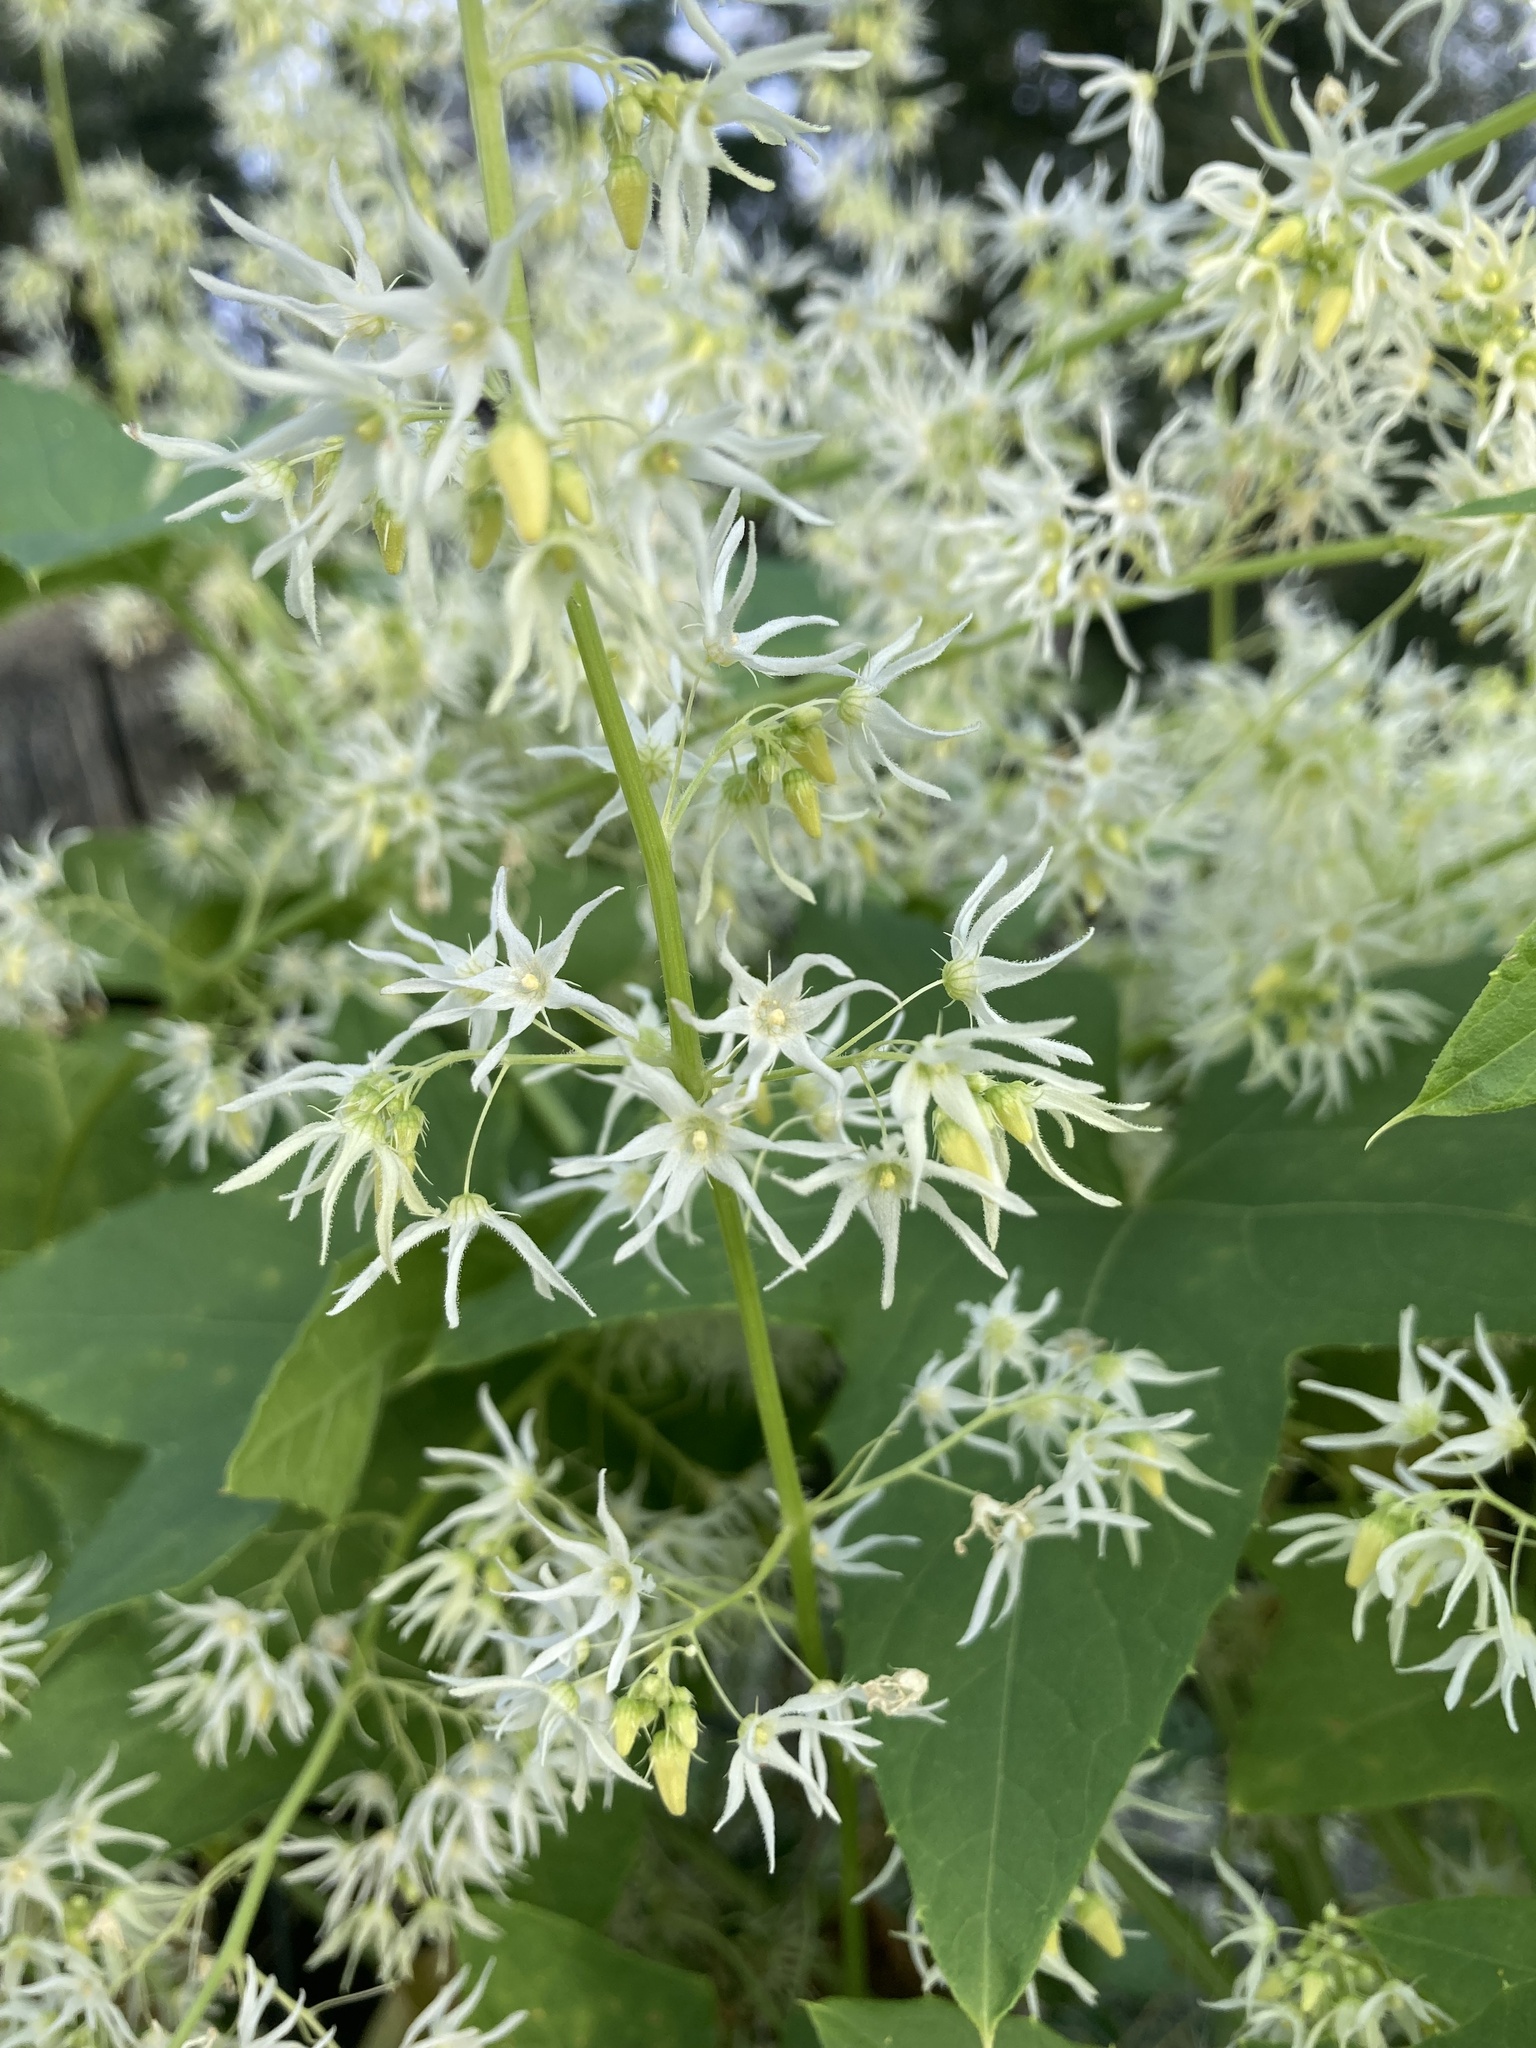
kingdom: Plantae
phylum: Tracheophyta
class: Magnoliopsida
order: Cucurbitales
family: Cucurbitaceae
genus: Echinocystis
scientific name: Echinocystis lobata
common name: Wild cucumber
